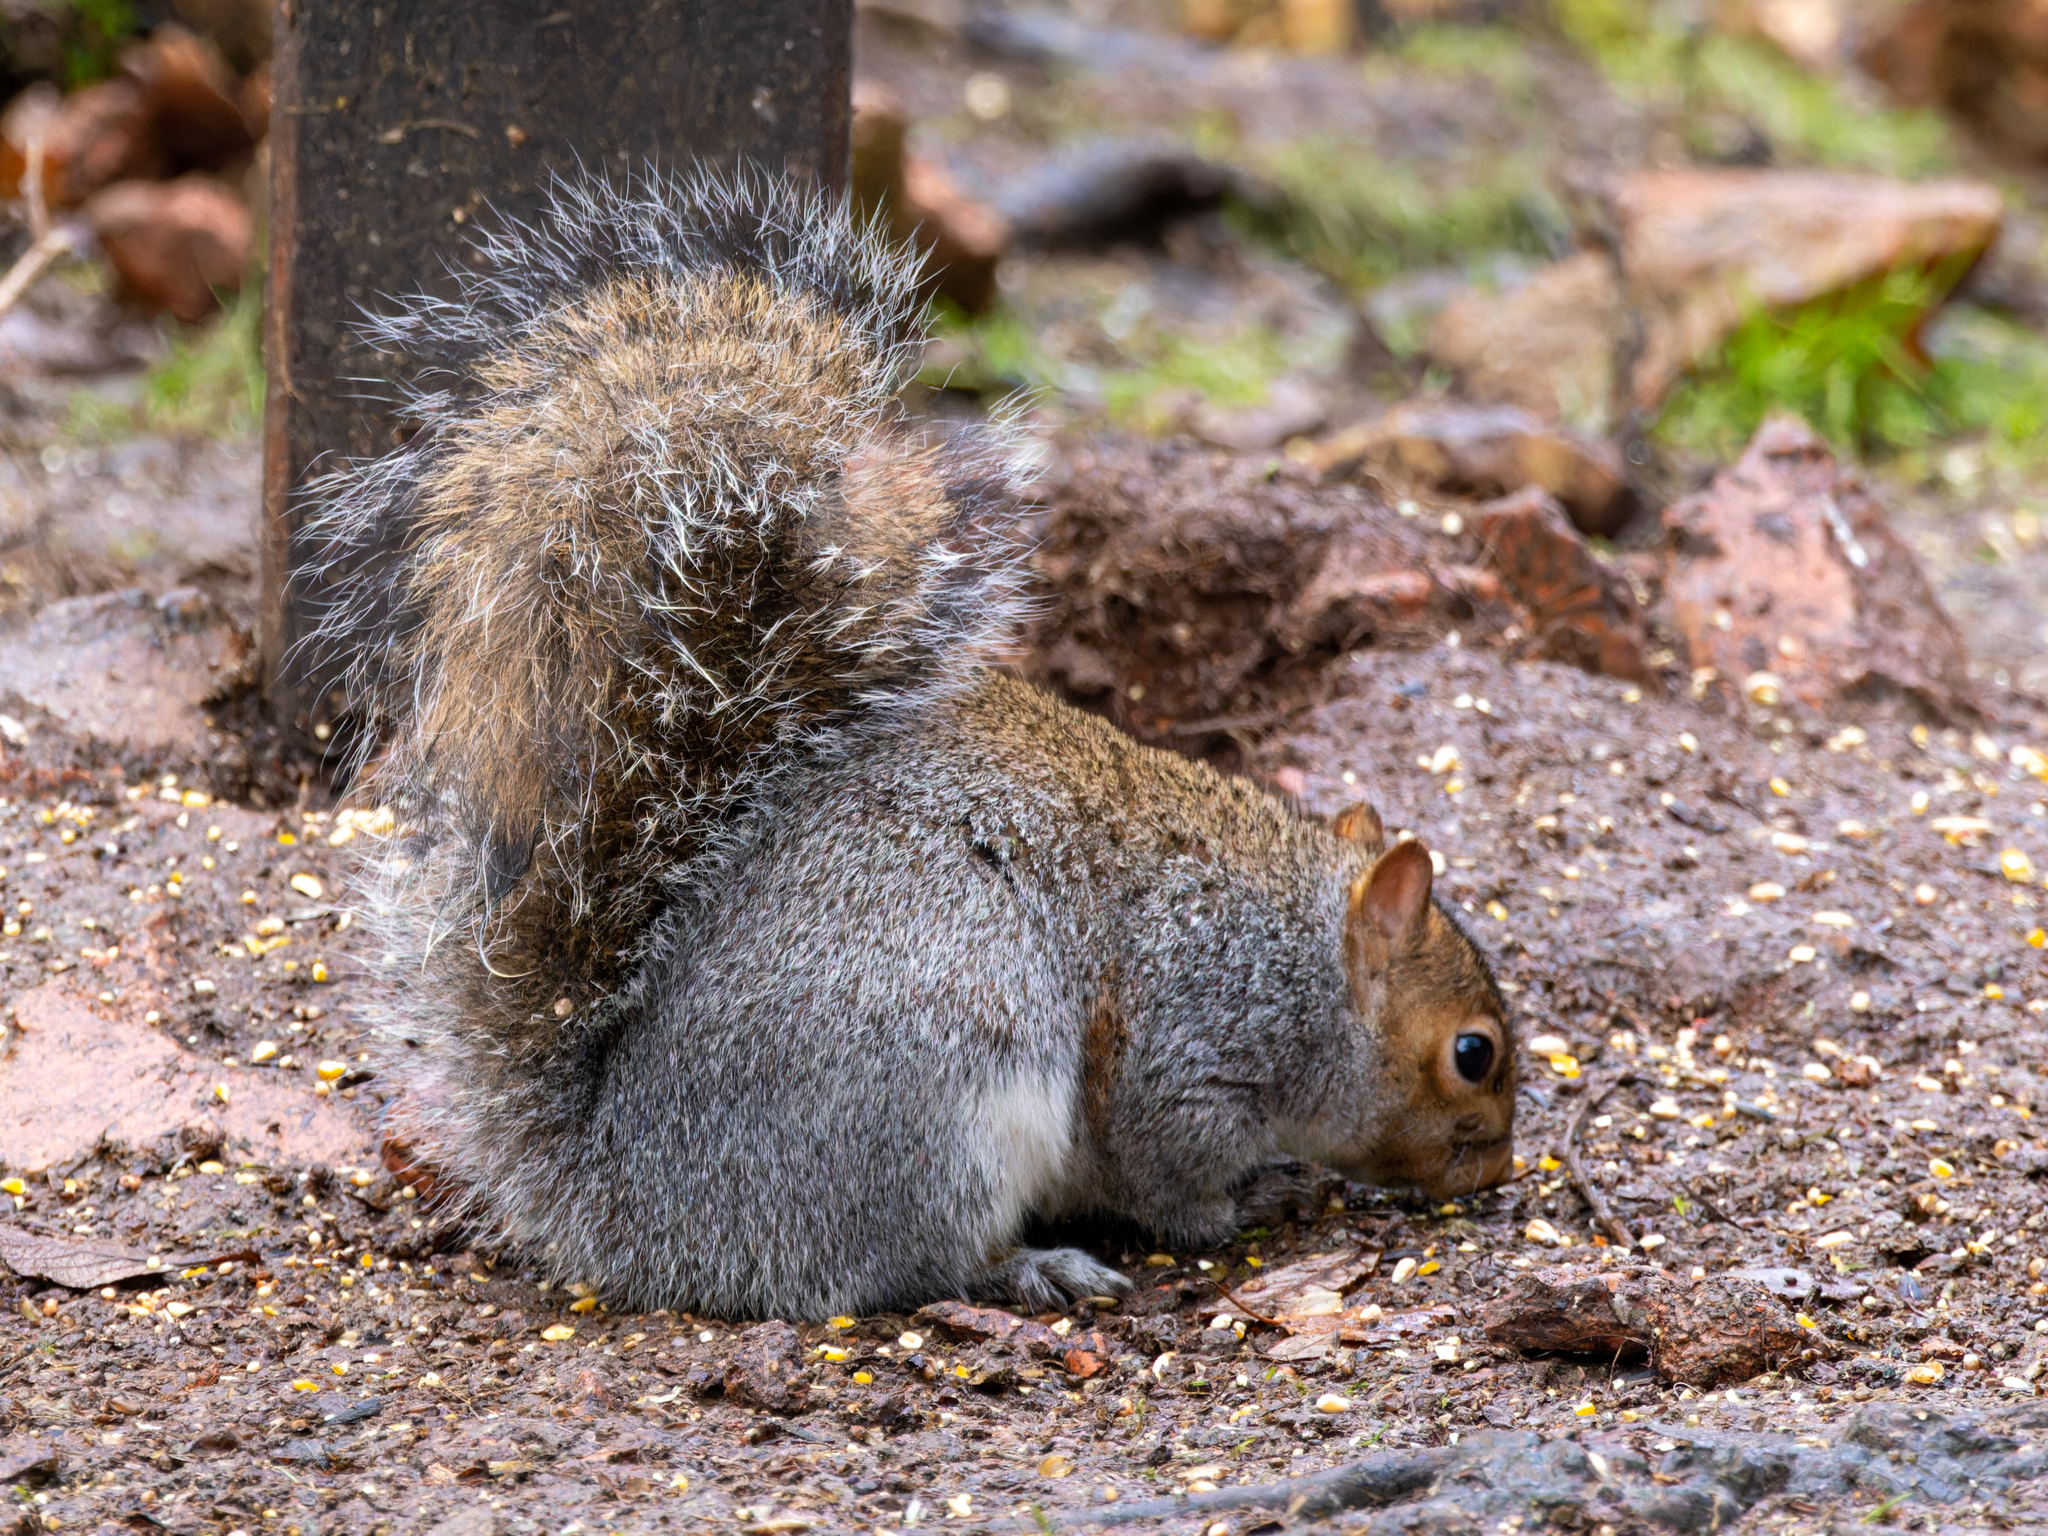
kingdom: Animalia
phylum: Chordata
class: Mammalia
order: Rodentia
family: Sciuridae
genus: Sciurus
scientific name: Sciurus carolinensis
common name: Eastern gray squirrel
